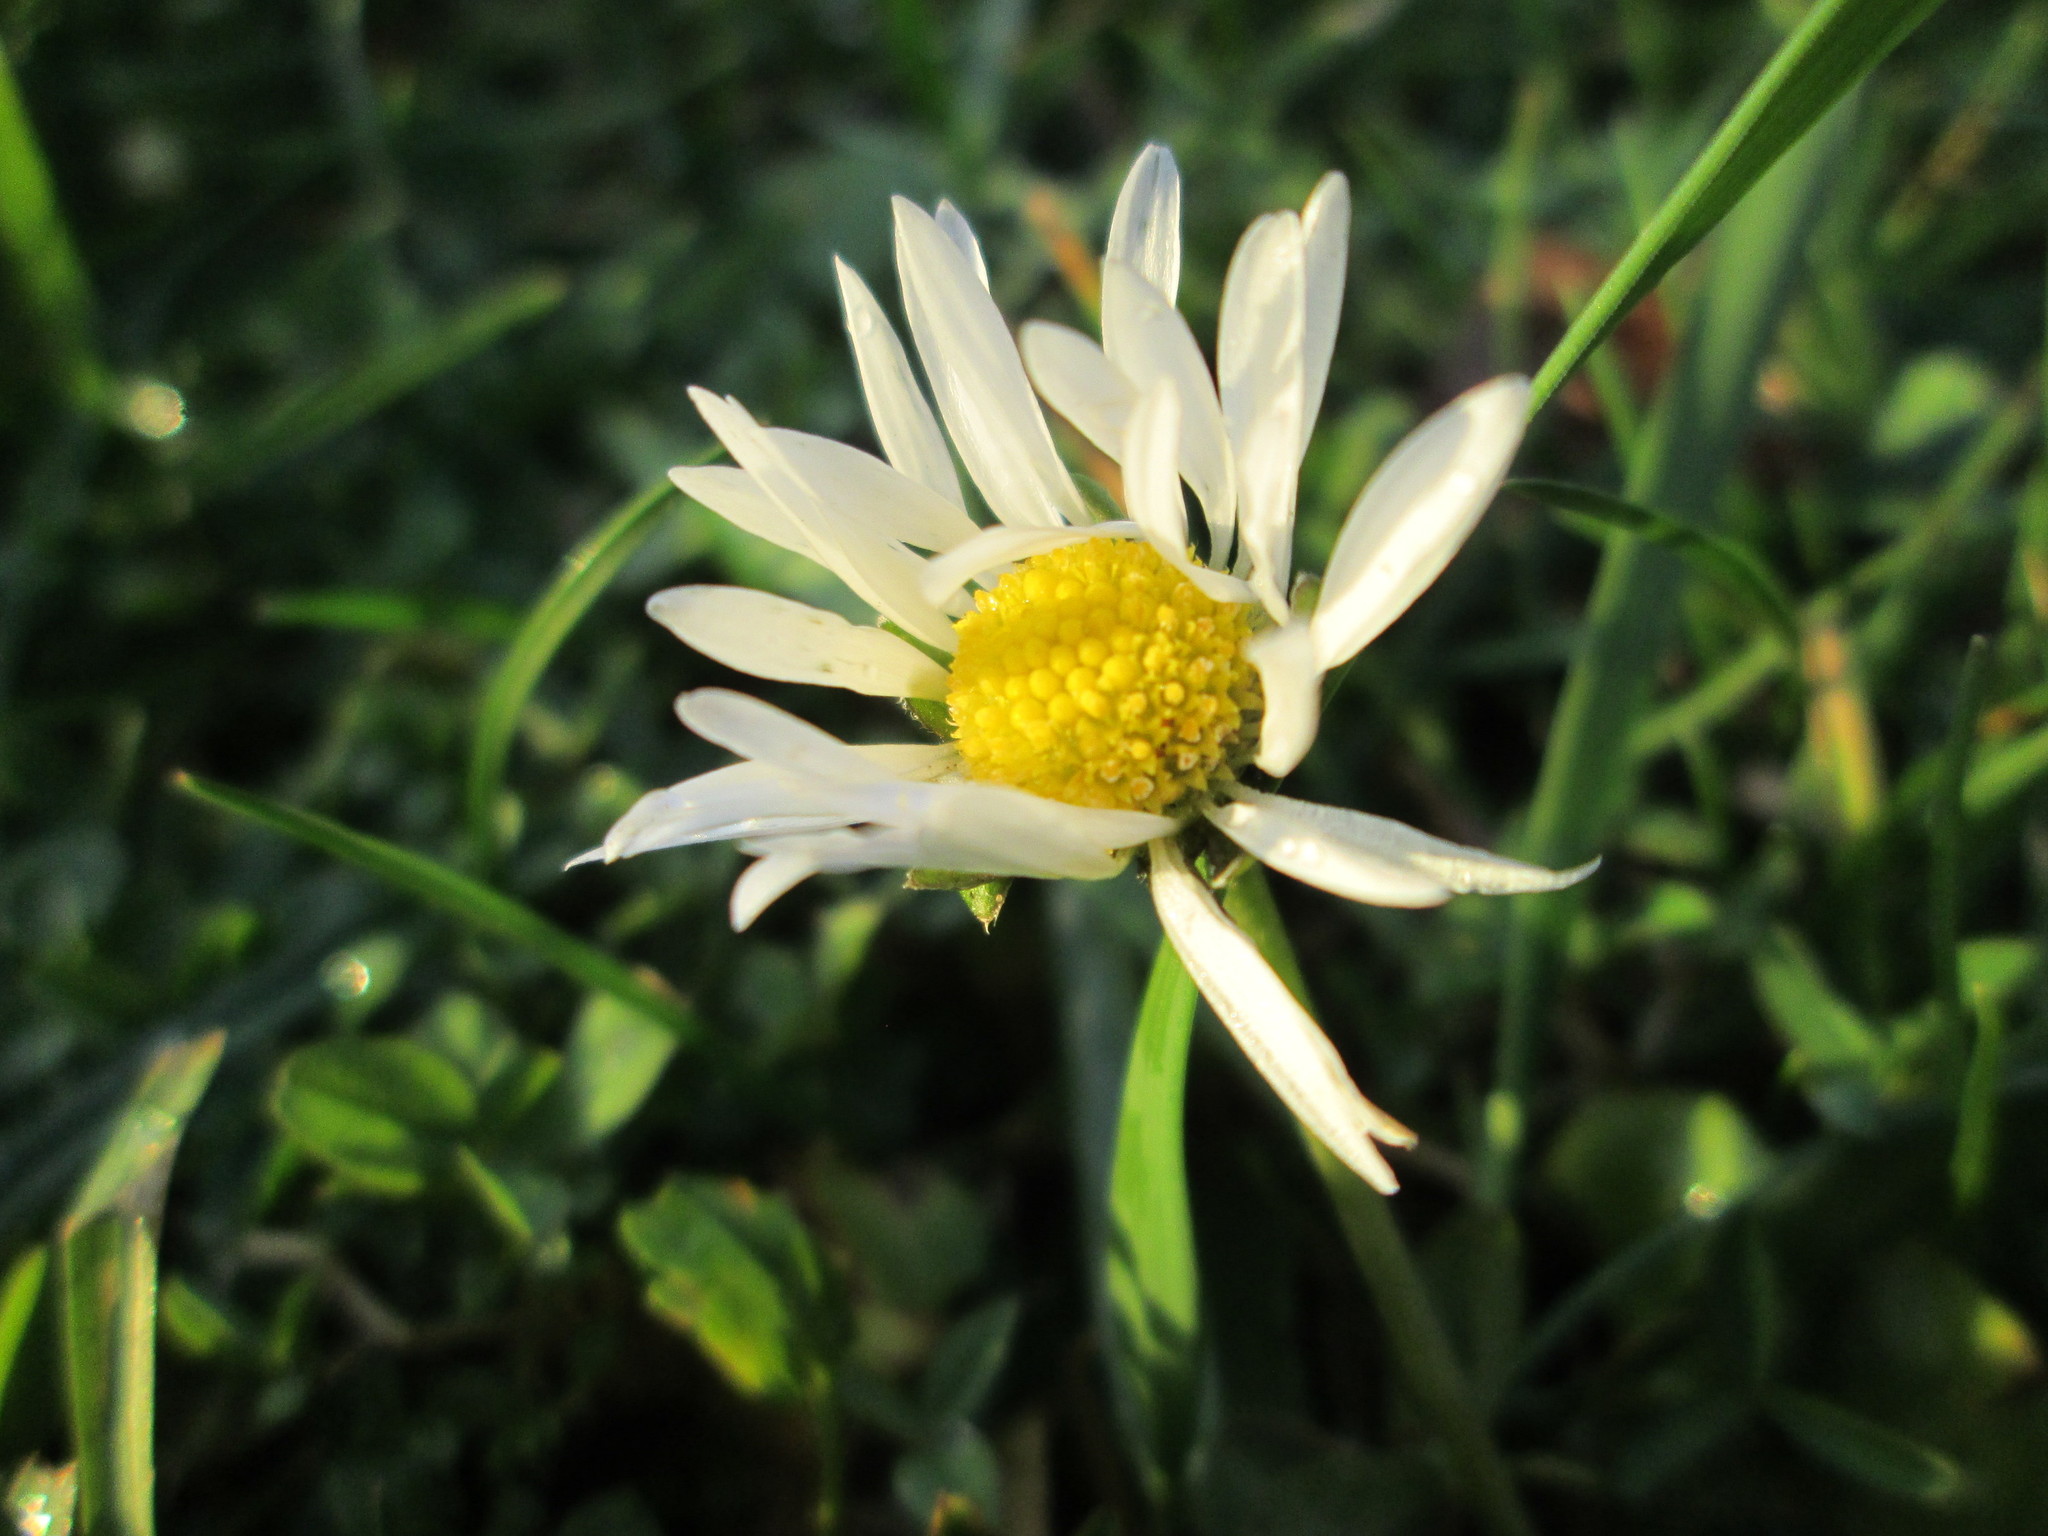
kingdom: Plantae
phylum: Tracheophyta
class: Magnoliopsida
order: Asterales
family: Asteraceae
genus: Bellis
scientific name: Bellis perennis
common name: Lawndaisy
